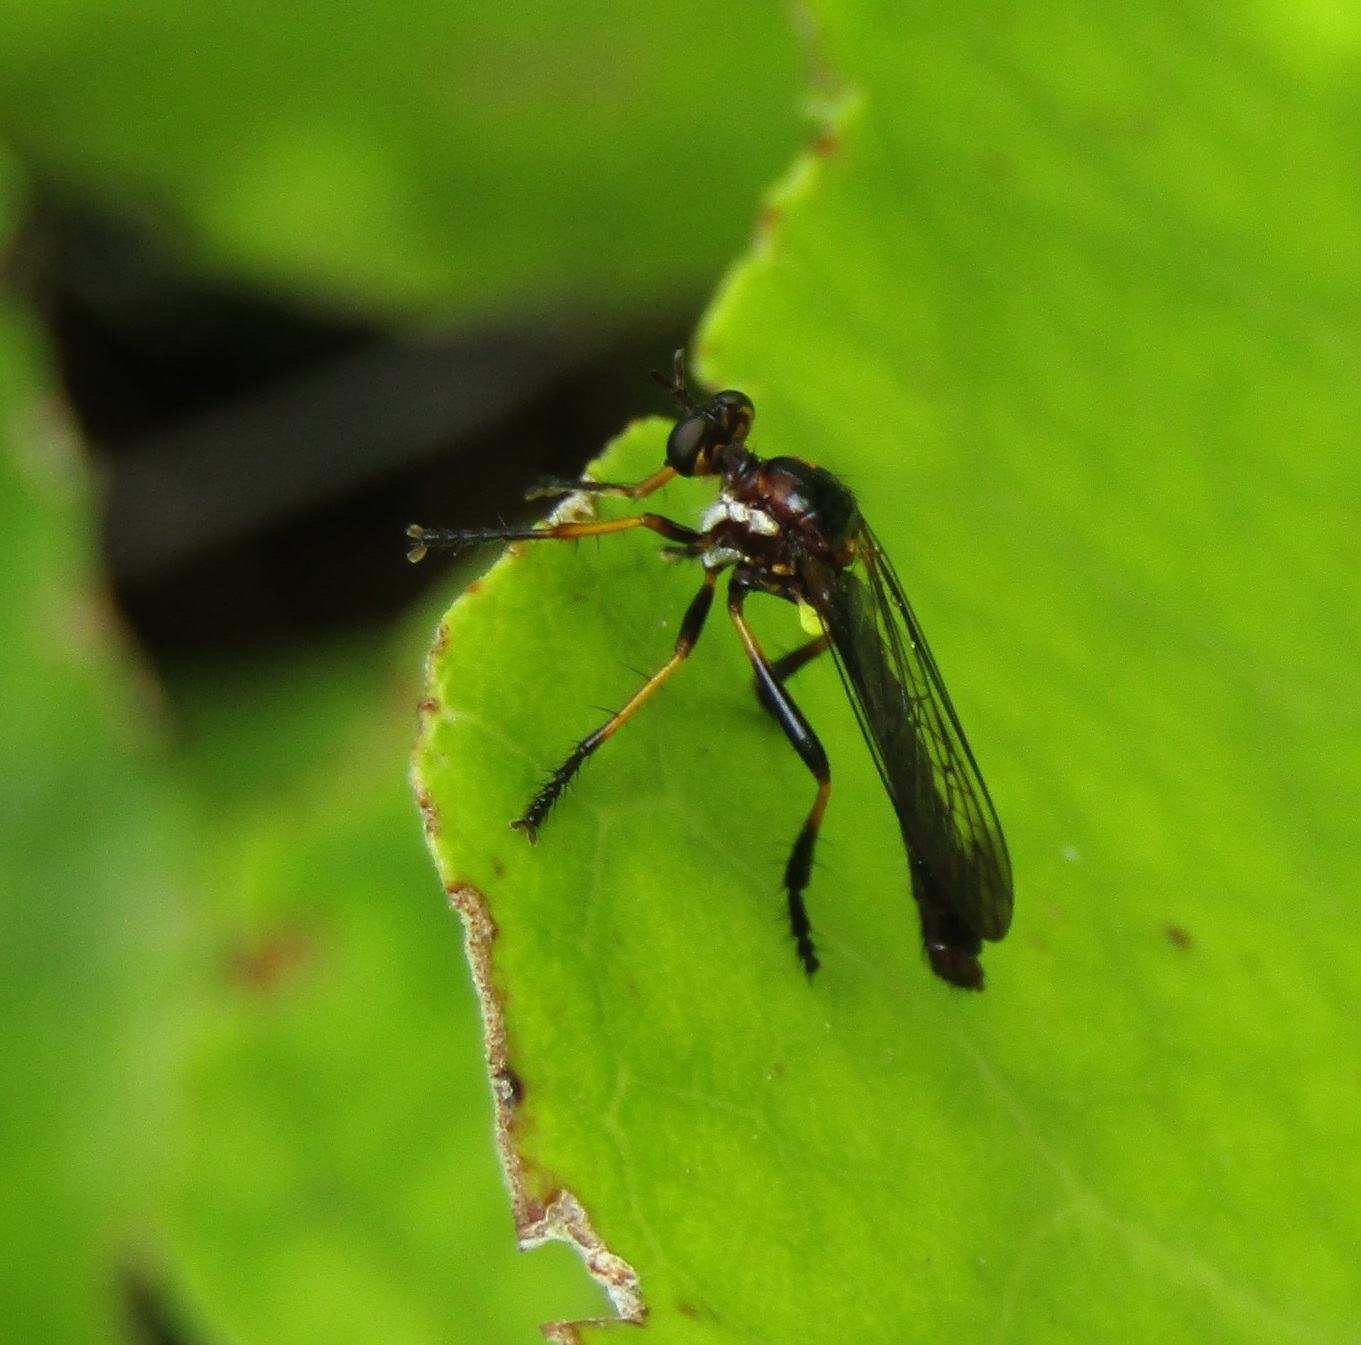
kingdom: Animalia
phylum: Arthropoda
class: Insecta
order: Diptera
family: Asilidae
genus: Saropogon
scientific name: Saropogon fascipes
